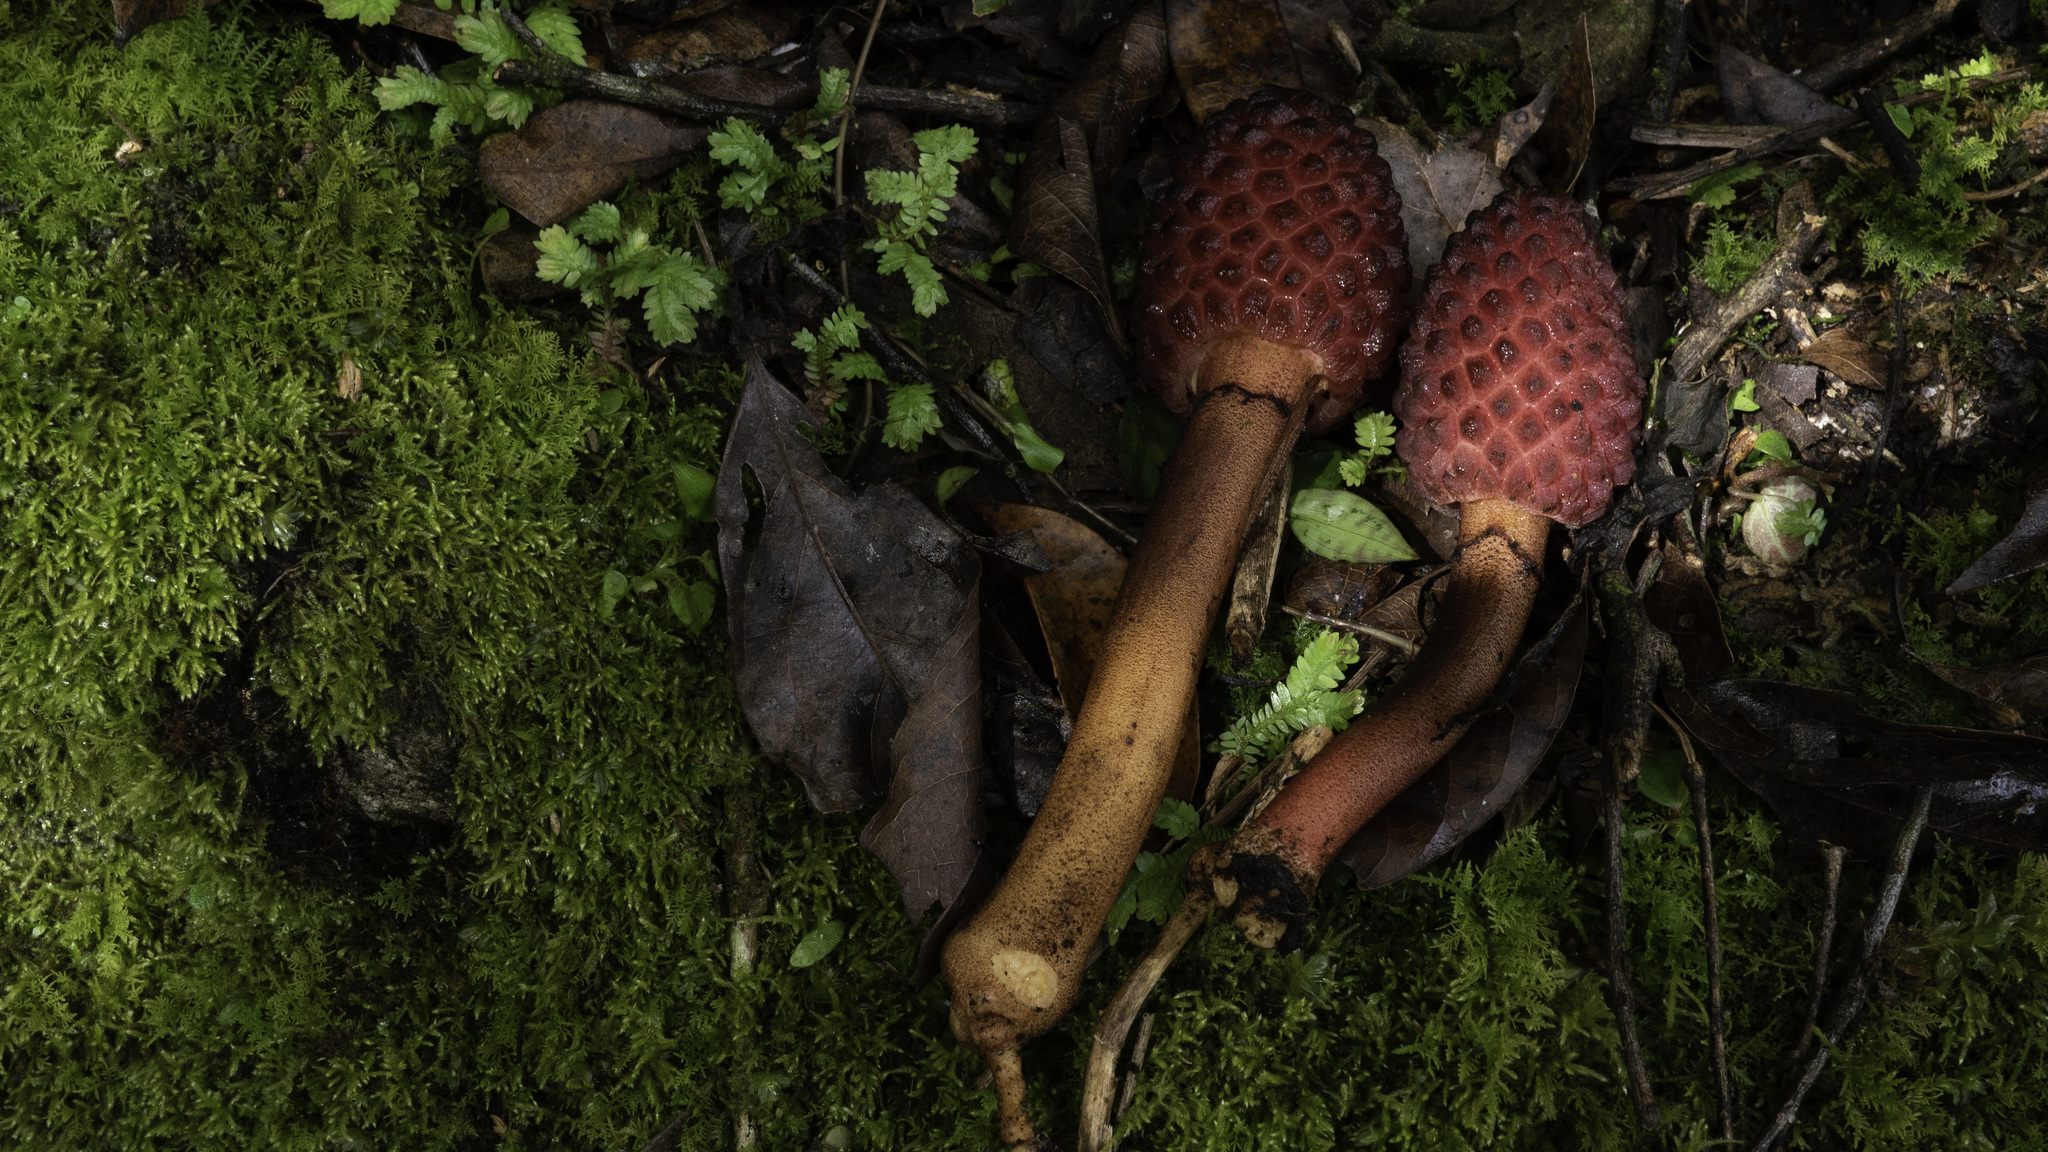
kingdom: Plantae
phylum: Tracheophyta
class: Magnoliopsida
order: Santalales
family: Balanophoraceae
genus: Helosis
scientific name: Helosis cayennensis
